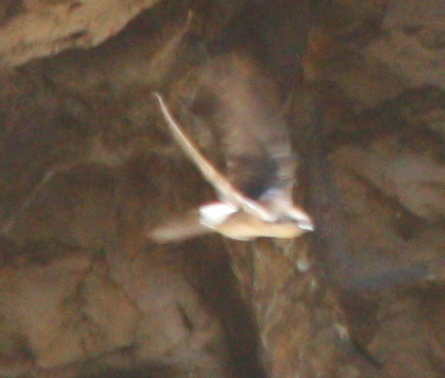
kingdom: Animalia
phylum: Chordata
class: Aves
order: Passeriformes
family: Hirundinidae
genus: Delichon
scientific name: Delichon urbicum
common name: Common house martin
